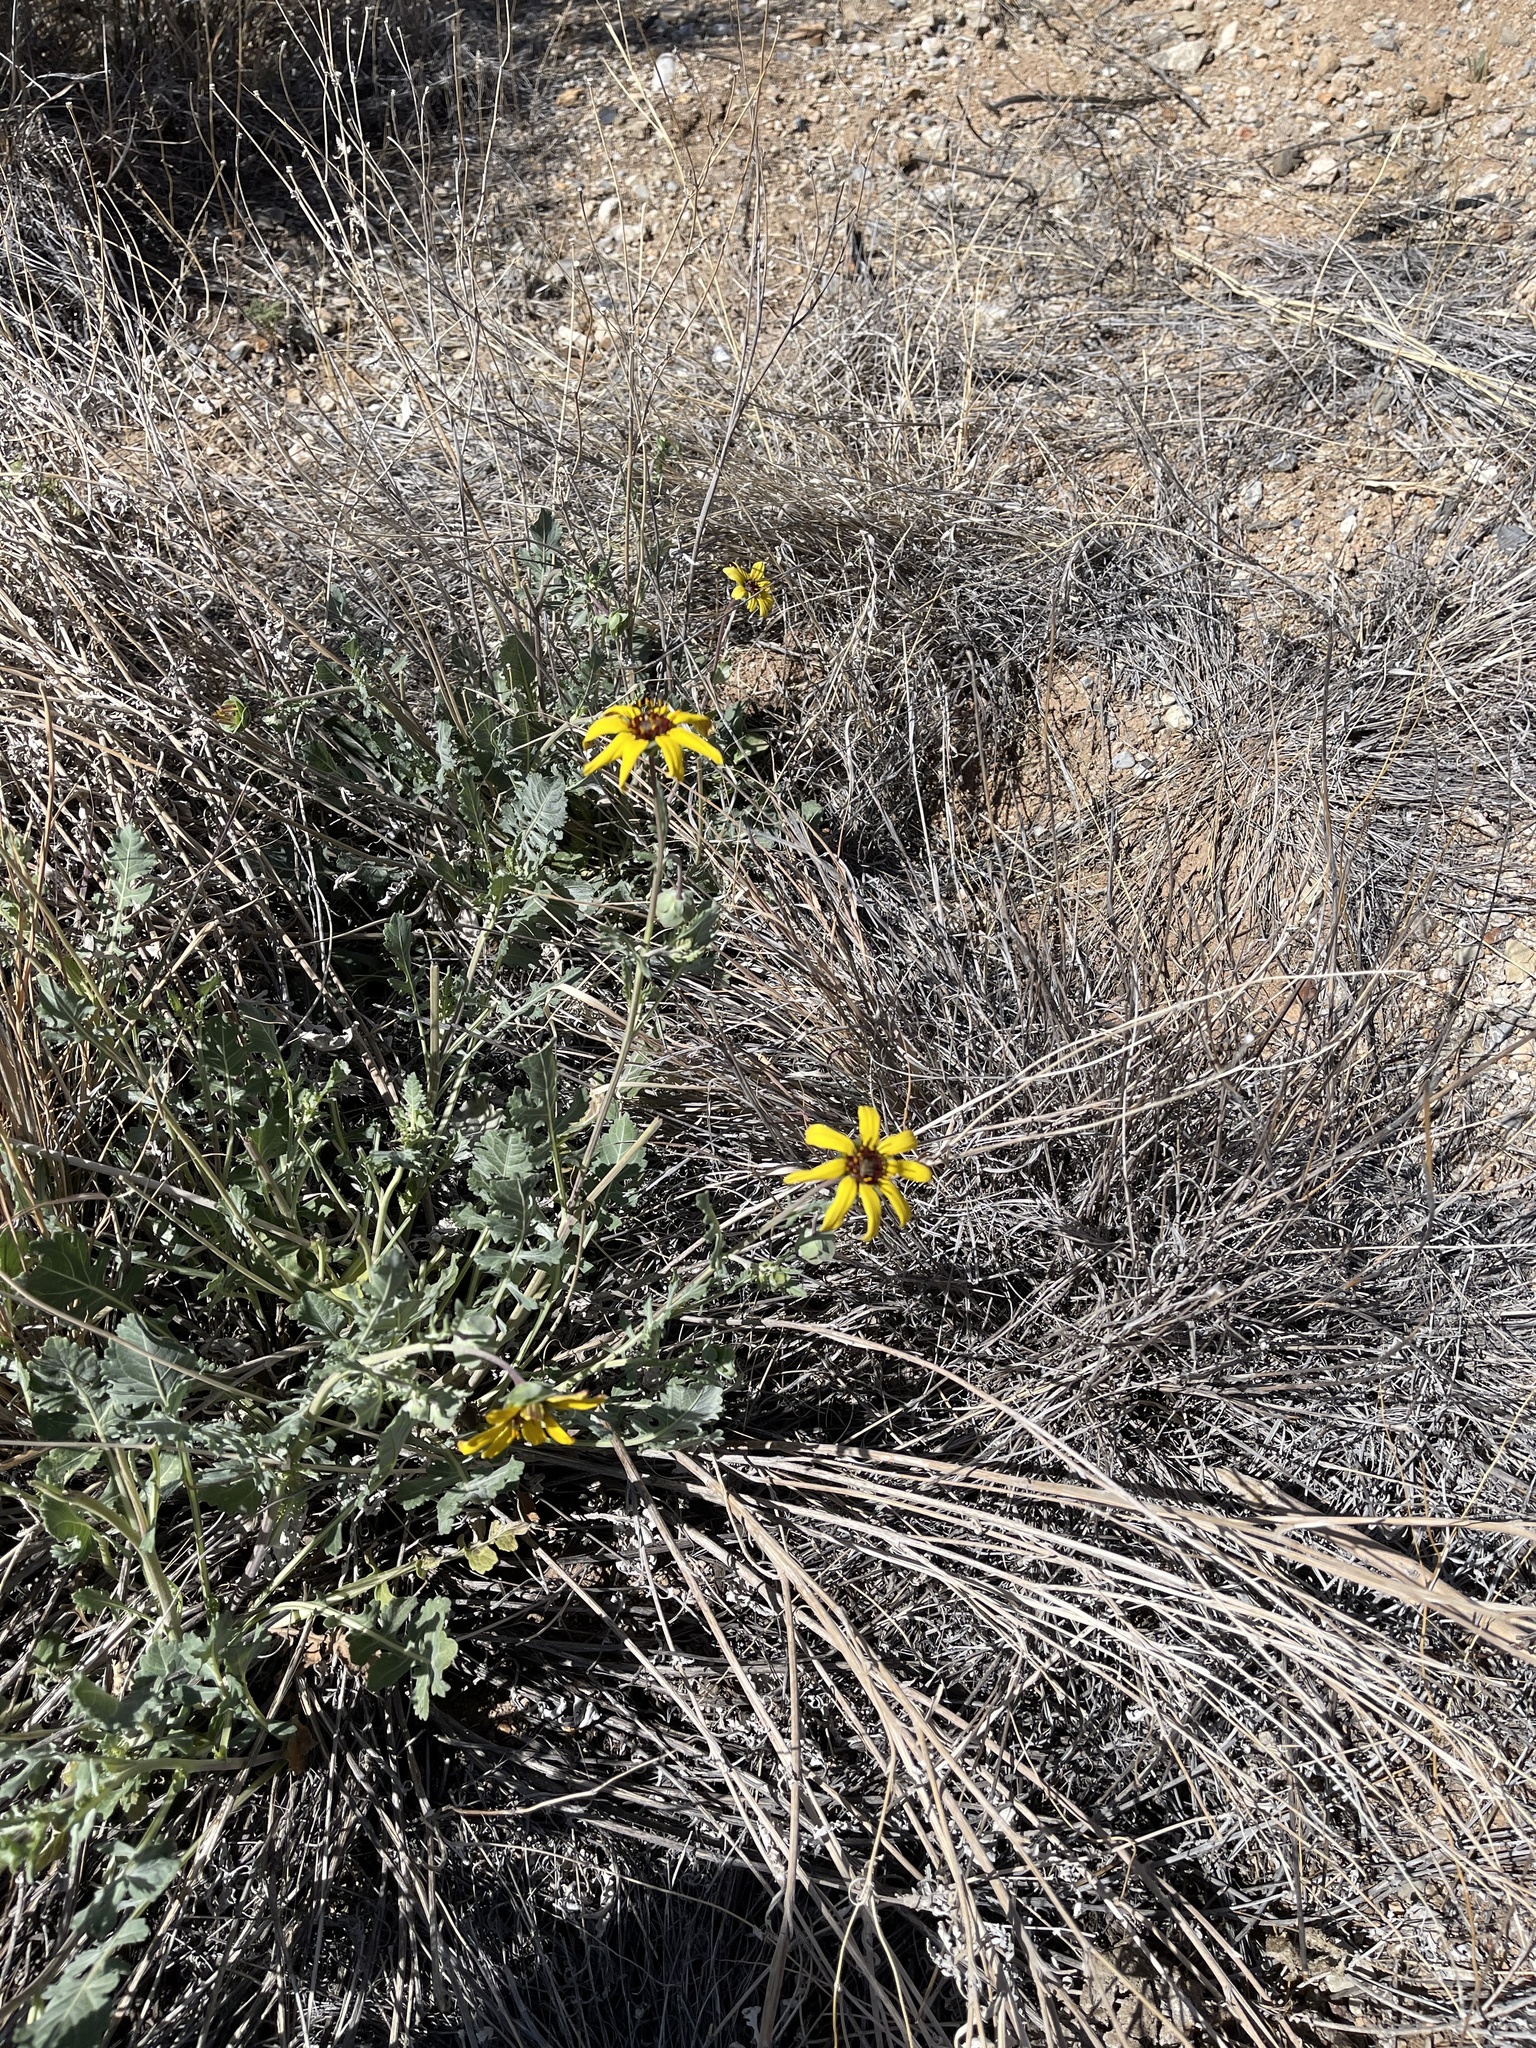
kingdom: Plantae
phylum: Tracheophyta
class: Magnoliopsida
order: Asterales
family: Asteraceae
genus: Berlandiera
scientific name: Berlandiera lyrata
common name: Chocolate-flower
